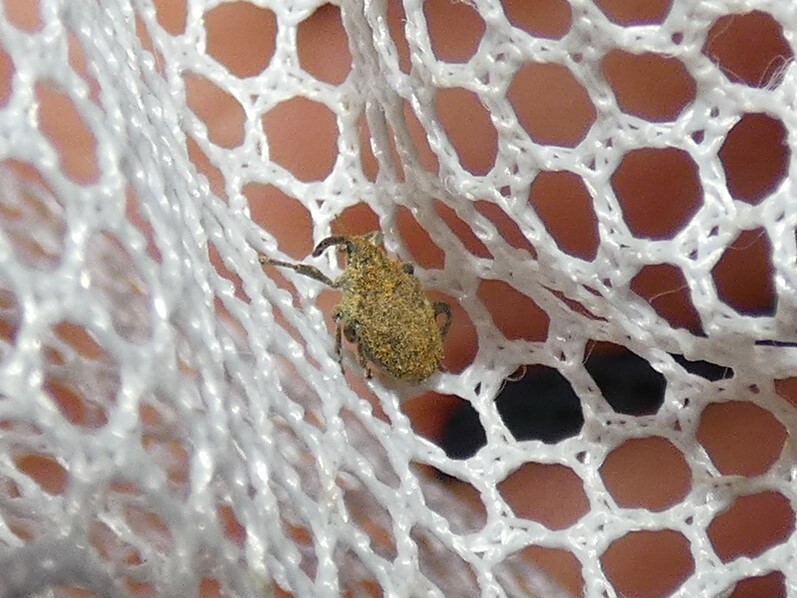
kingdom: Animalia
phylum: Arthropoda
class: Insecta
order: Coleoptera
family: Curculionidae
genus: Parethelcus
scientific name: Parethelcus pollinarius
